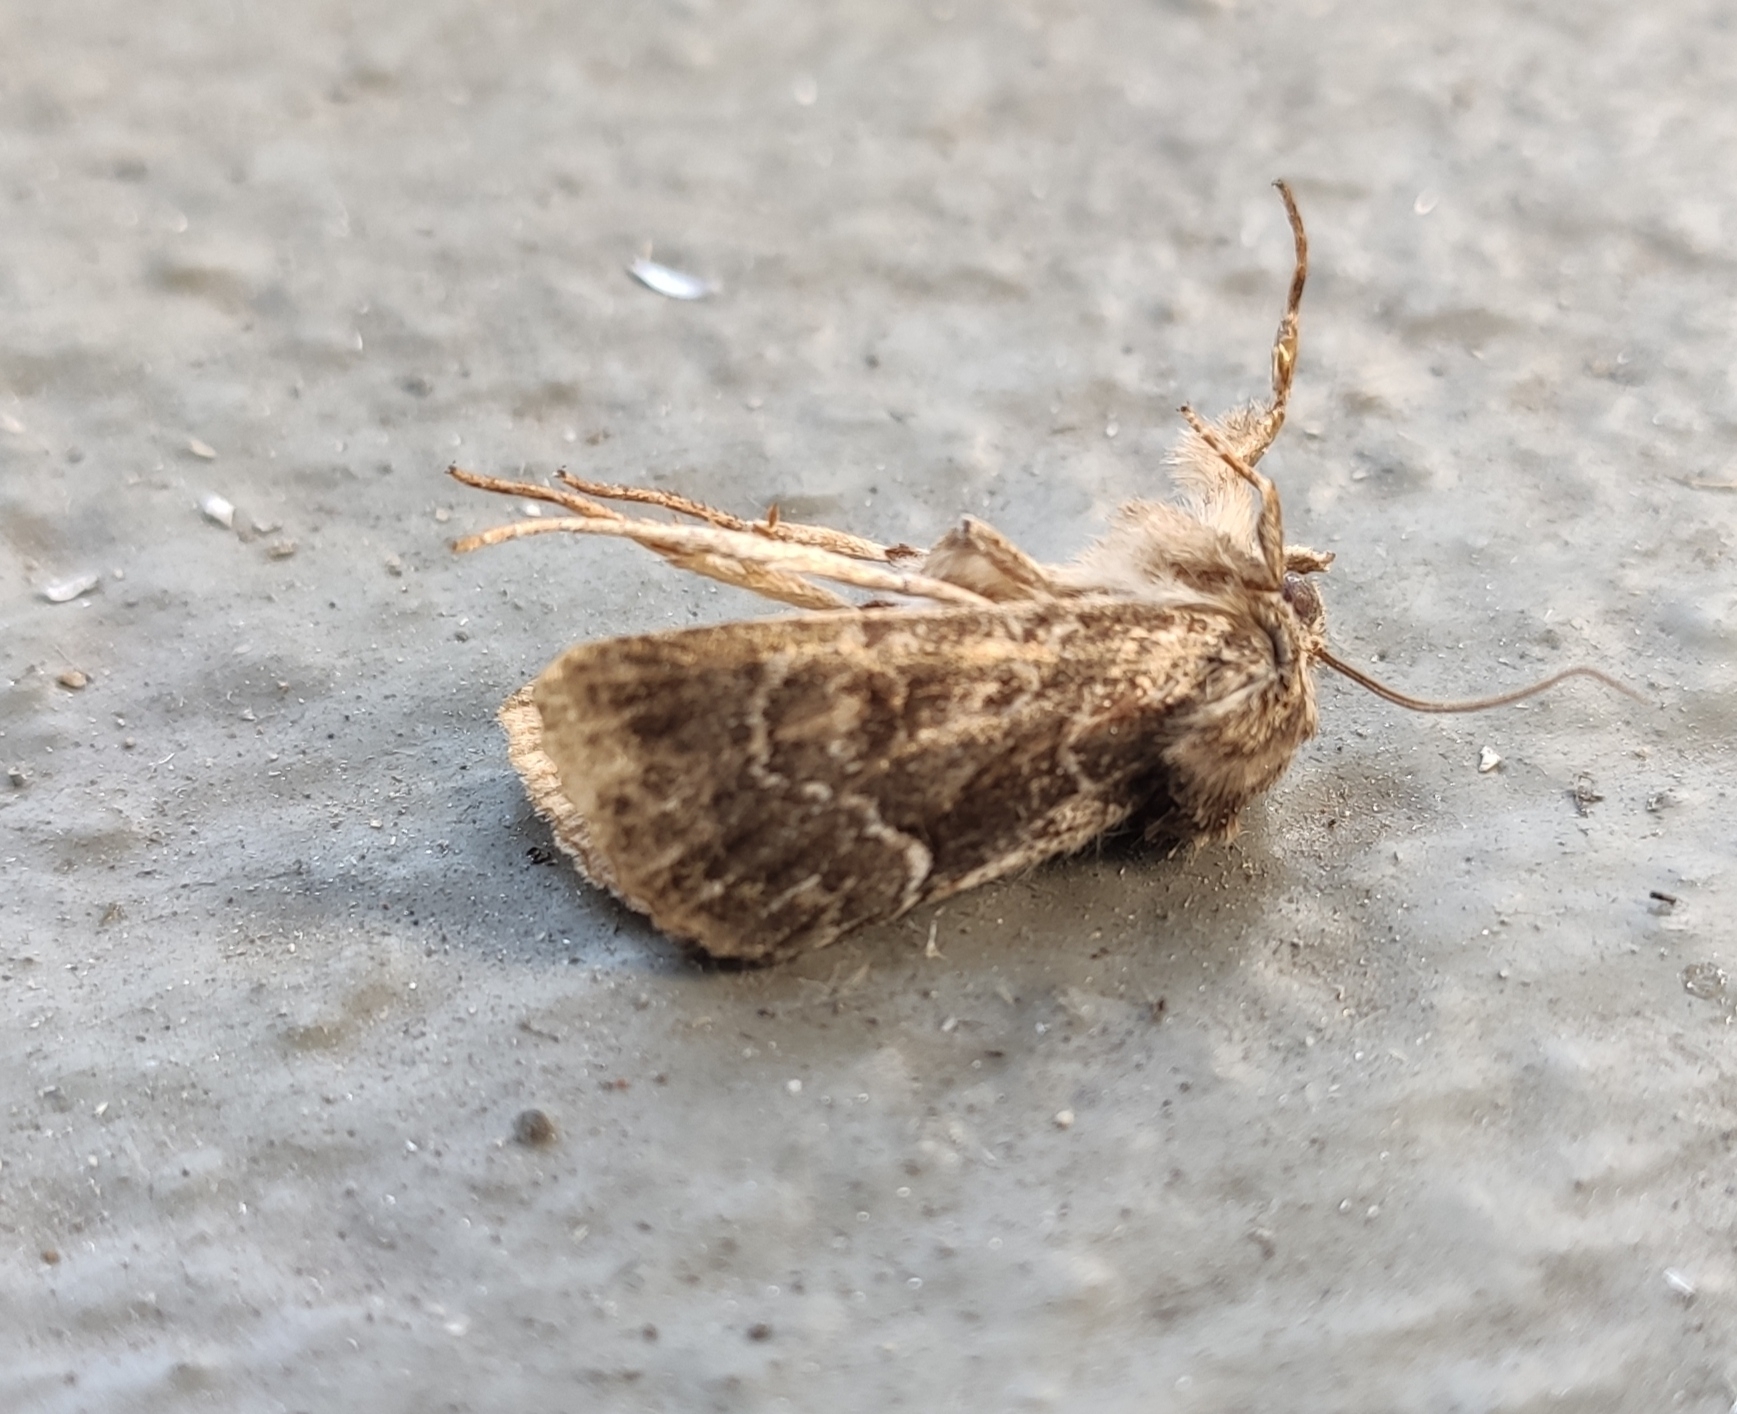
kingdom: Animalia
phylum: Arthropoda
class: Insecta
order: Lepidoptera
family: Noctuidae
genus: Thalpophila
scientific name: Thalpophila matura
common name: Straw underwing
